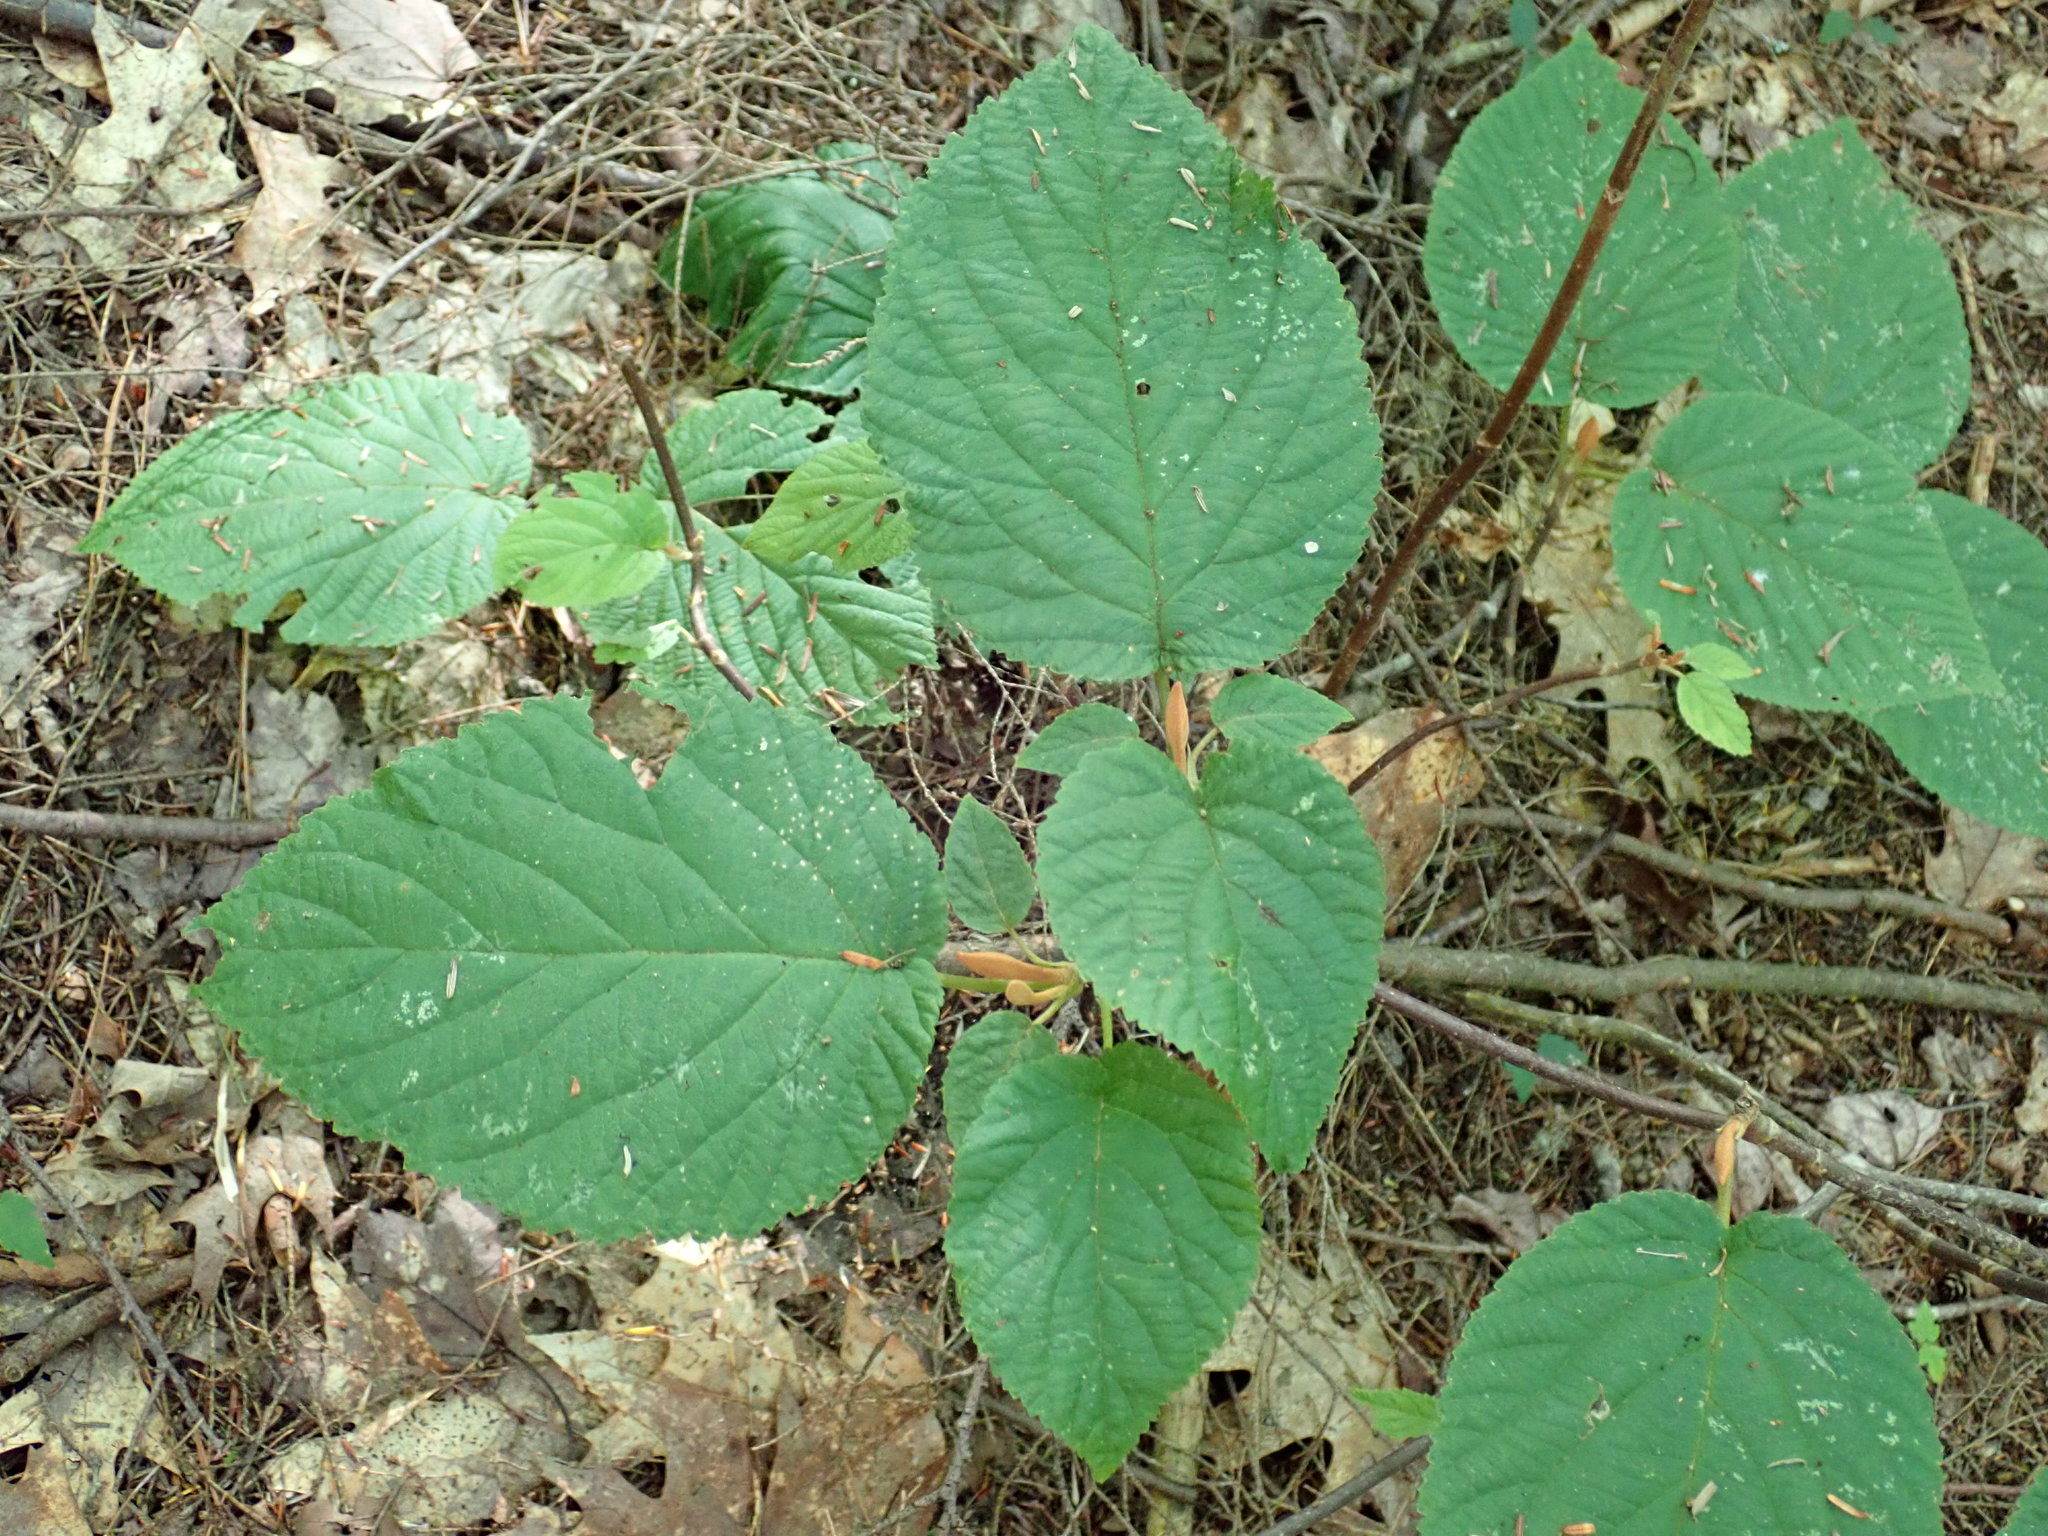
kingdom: Plantae
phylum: Tracheophyta
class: Magnoliopsida
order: Dipsacales
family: Viburnaceae
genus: Viburnum
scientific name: Viburnum lantanoides
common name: Hobblebush
